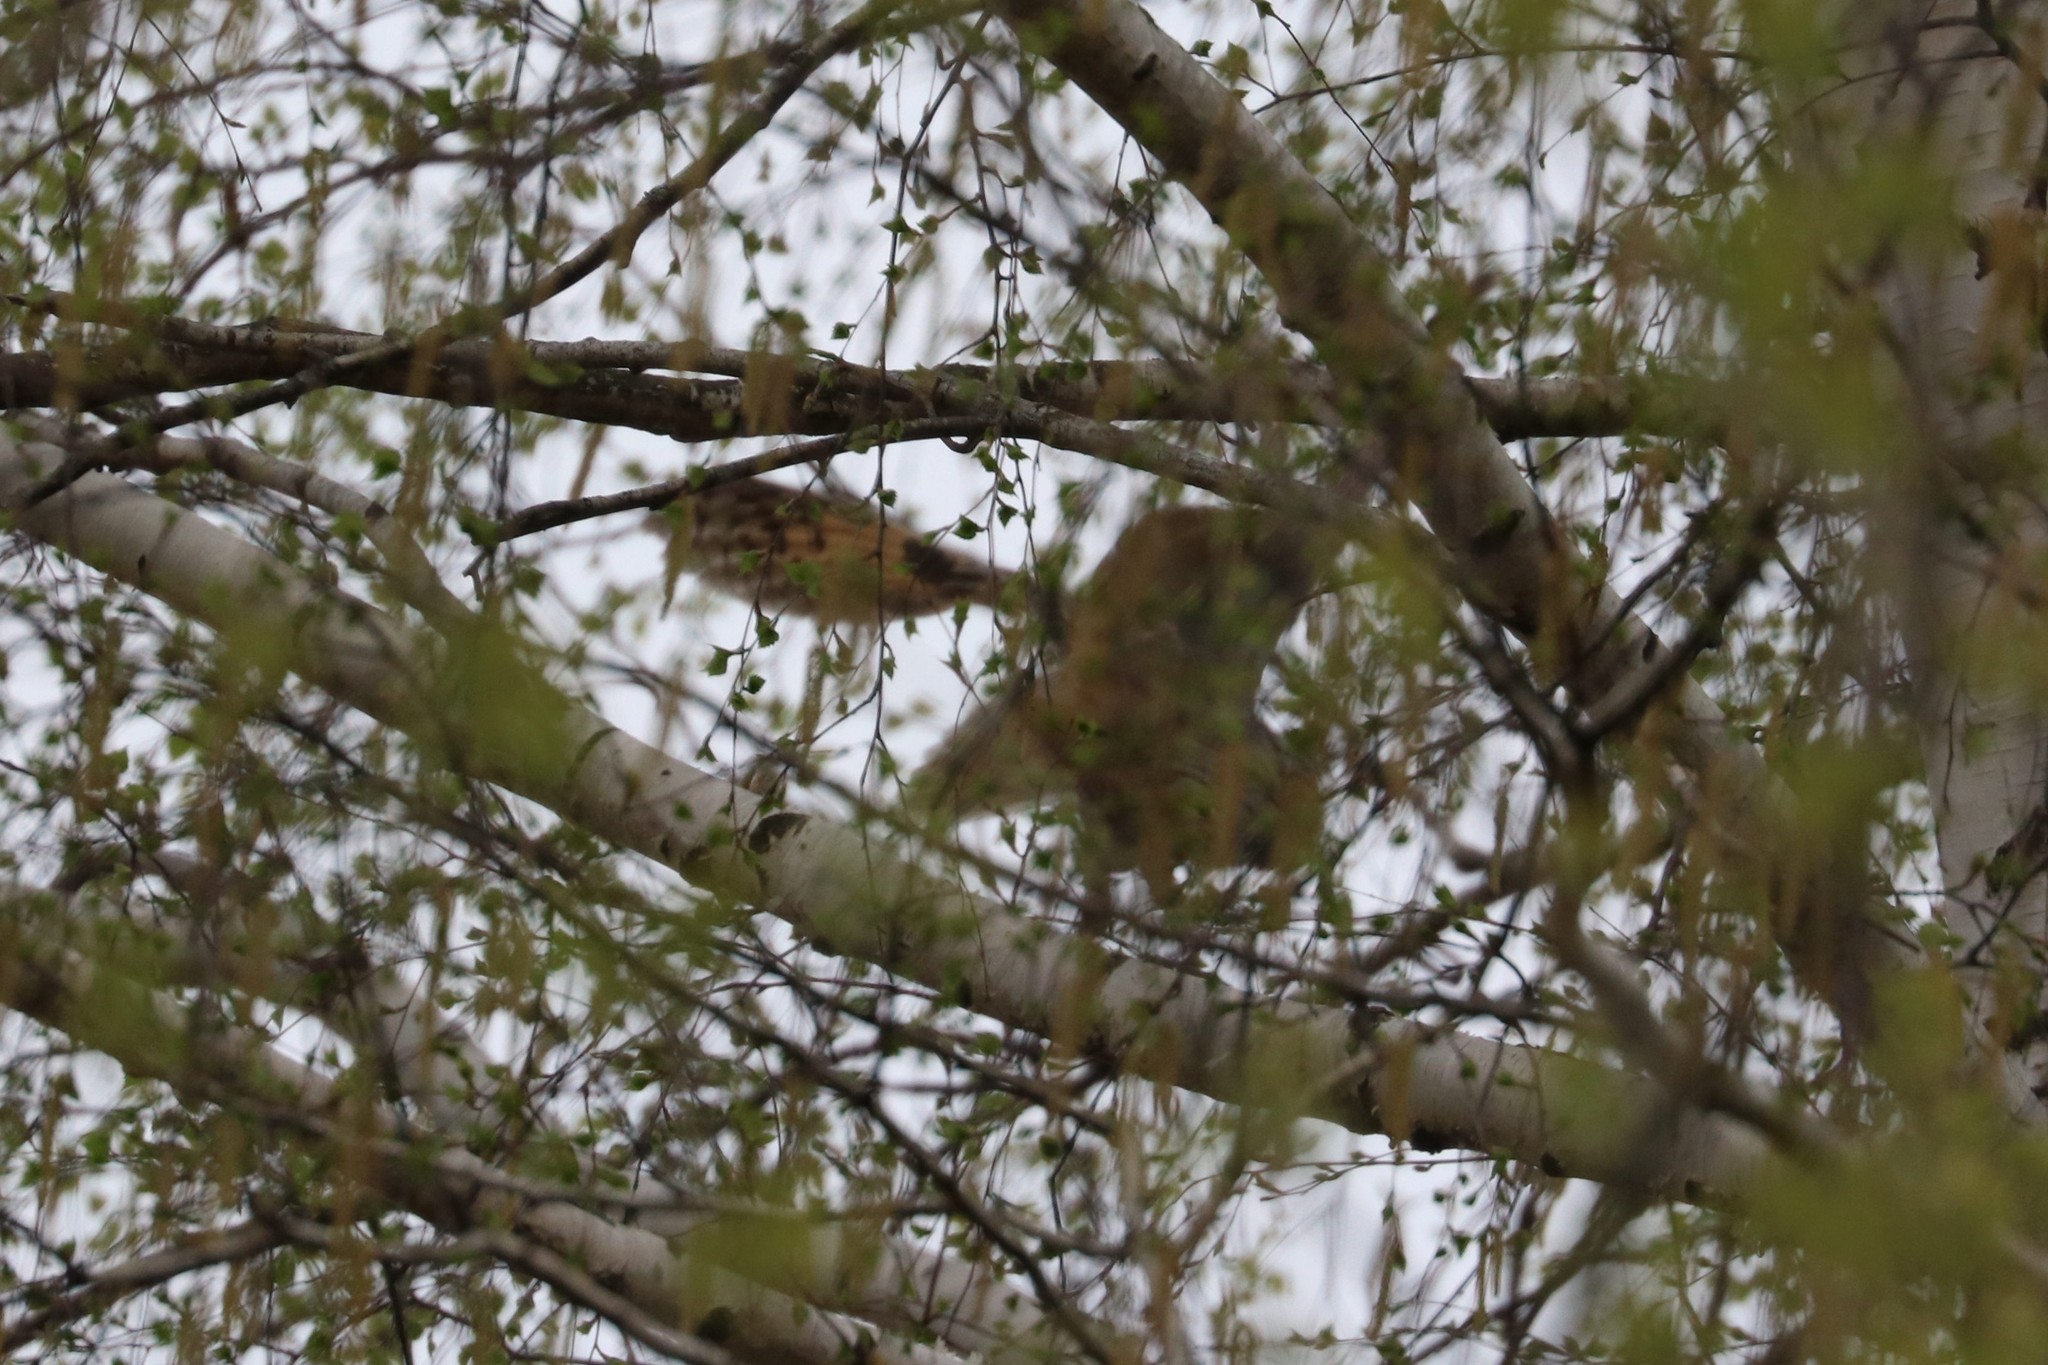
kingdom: Animalia
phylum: Chordata
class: Aves
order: Strigiformes
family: Strigidae
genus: Asio
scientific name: Asio otus
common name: Long-eared owl
